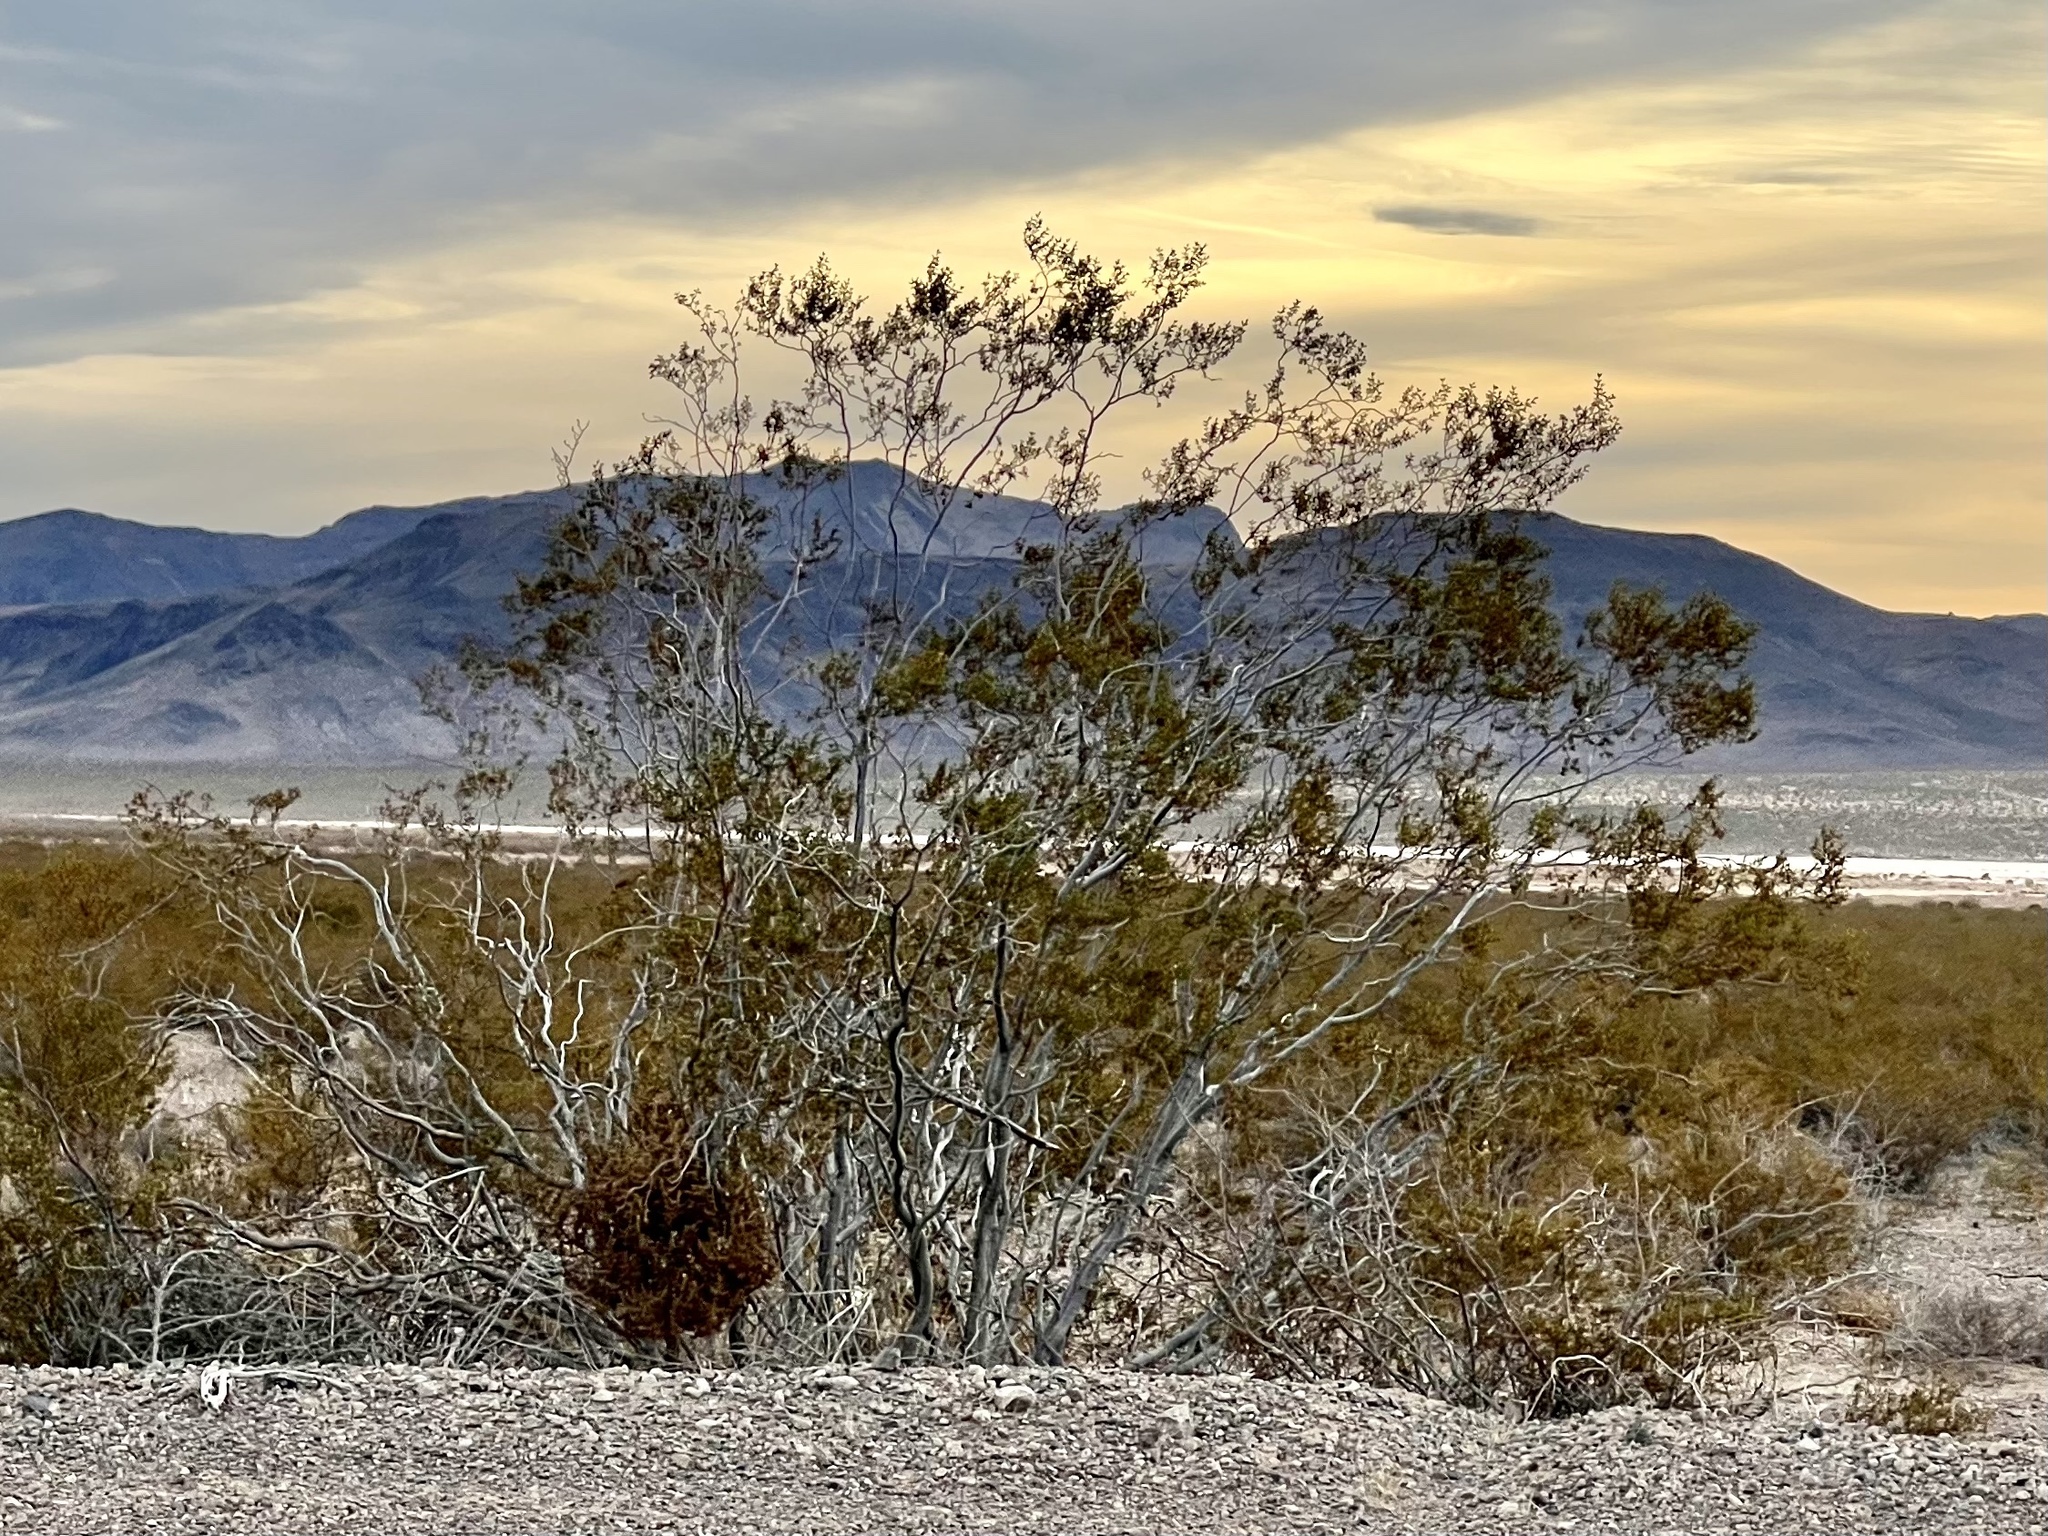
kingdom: Plantae
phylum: Tracheophyta
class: Magnoliopsida
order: Zygophyllales
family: Zygophyllaceae
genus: Larrea
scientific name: Larrea tridentata
